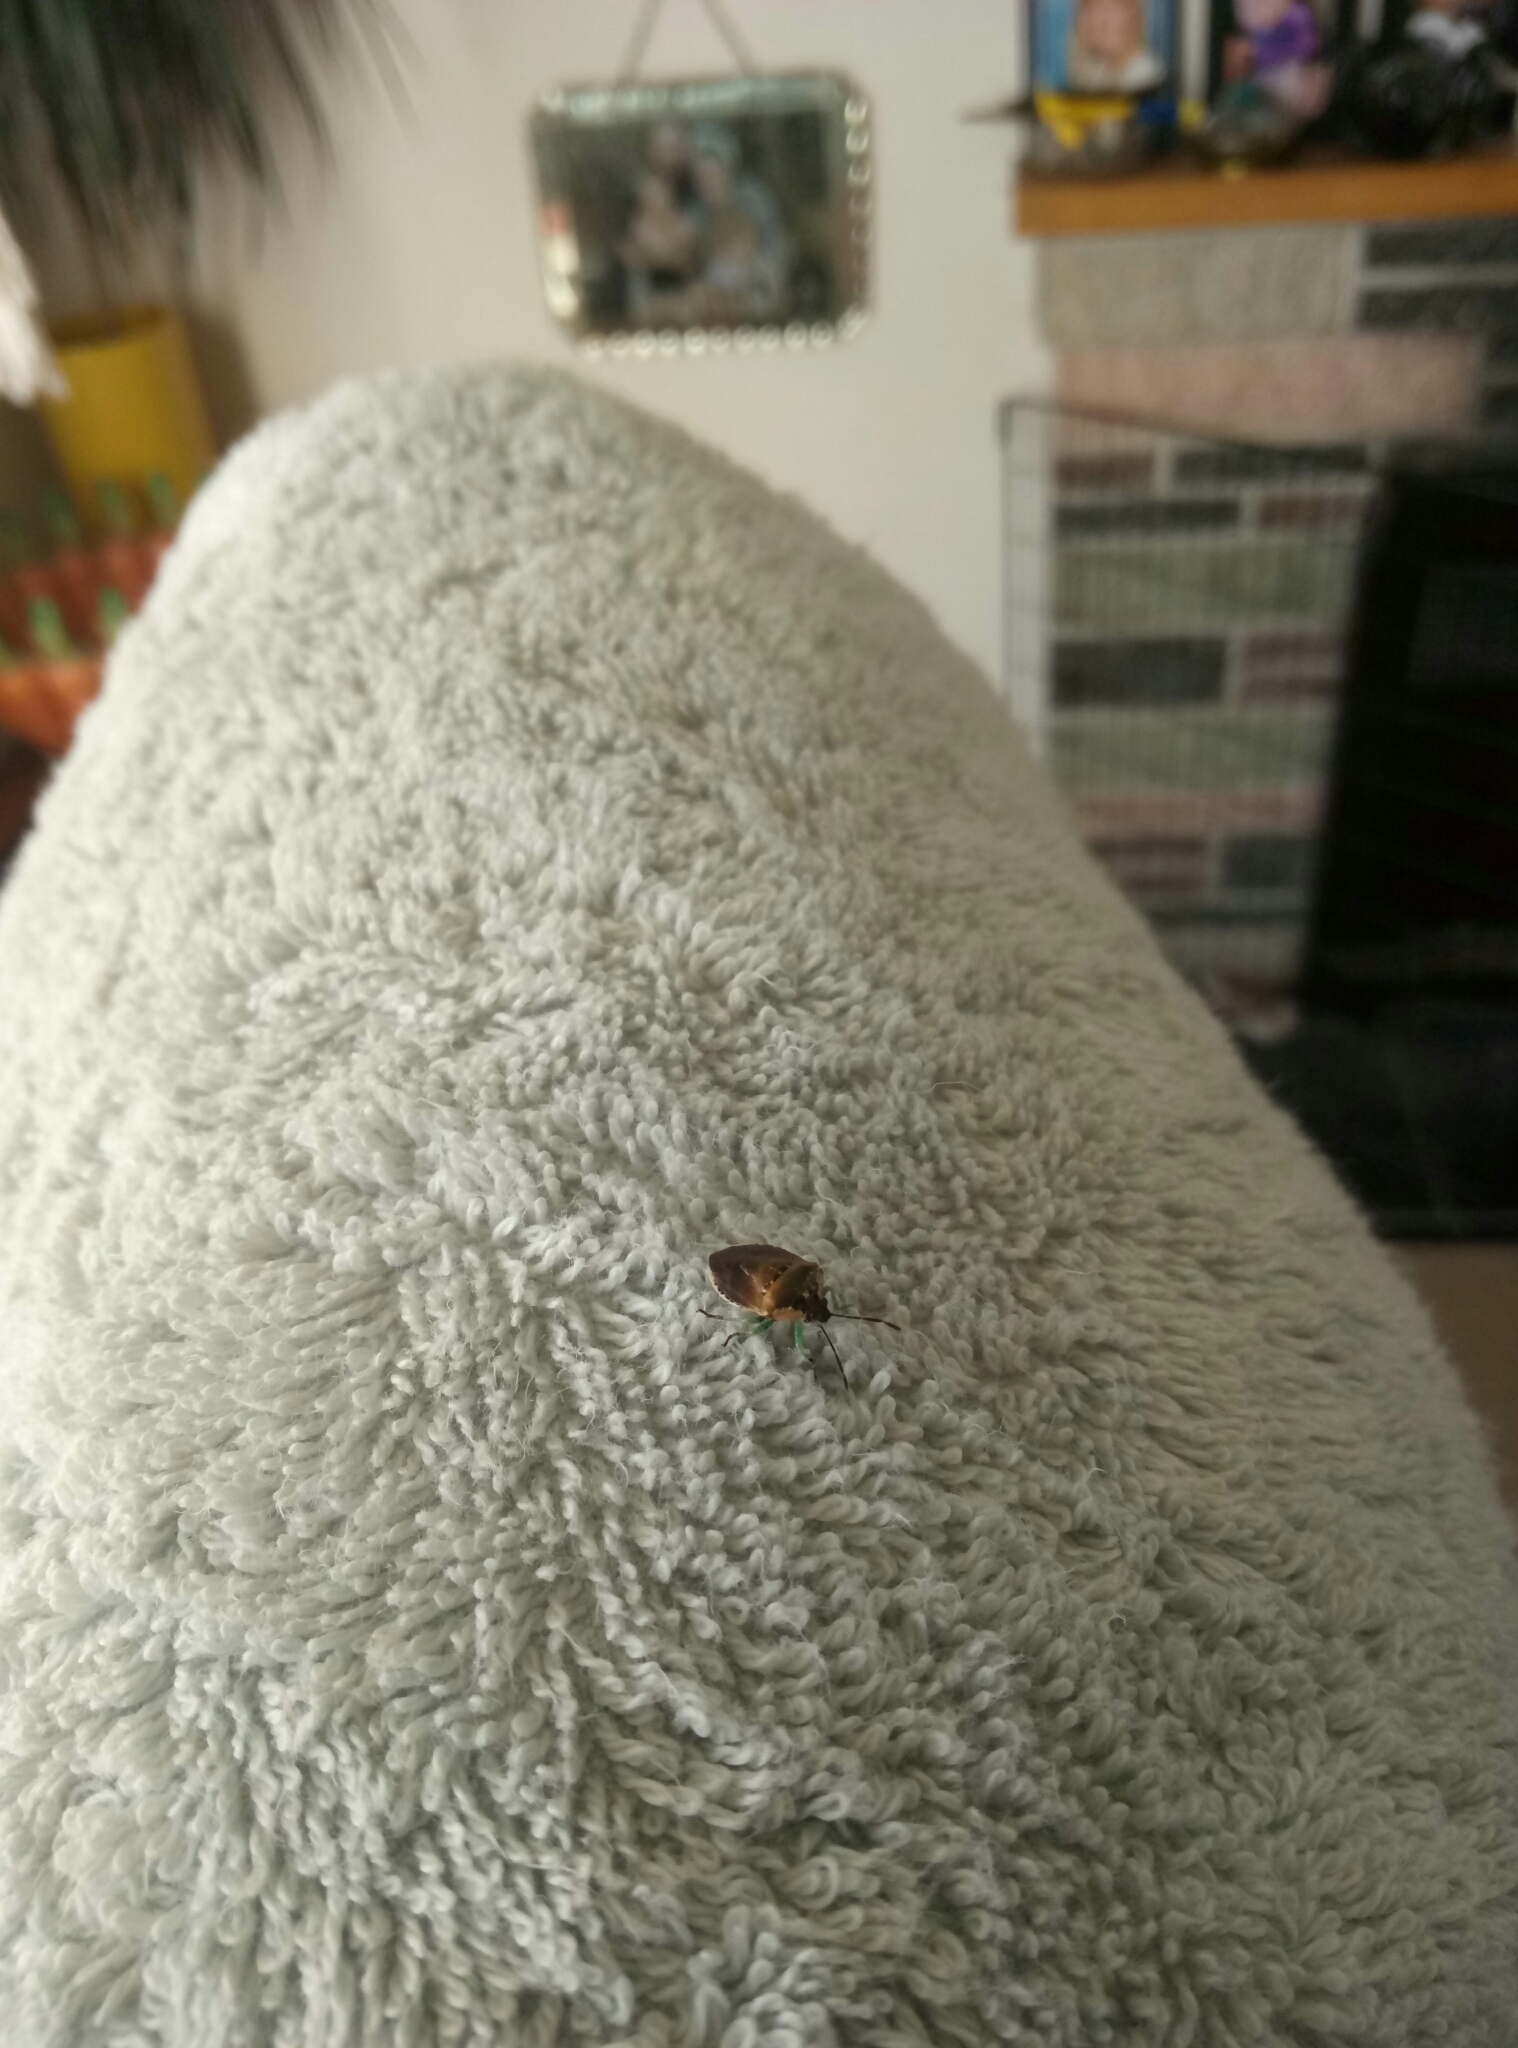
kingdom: Animalia
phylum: Arthropoda
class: Insecta
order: Hemiptera
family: Pentatomidae
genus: Monteithiella
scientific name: Monteithiella
